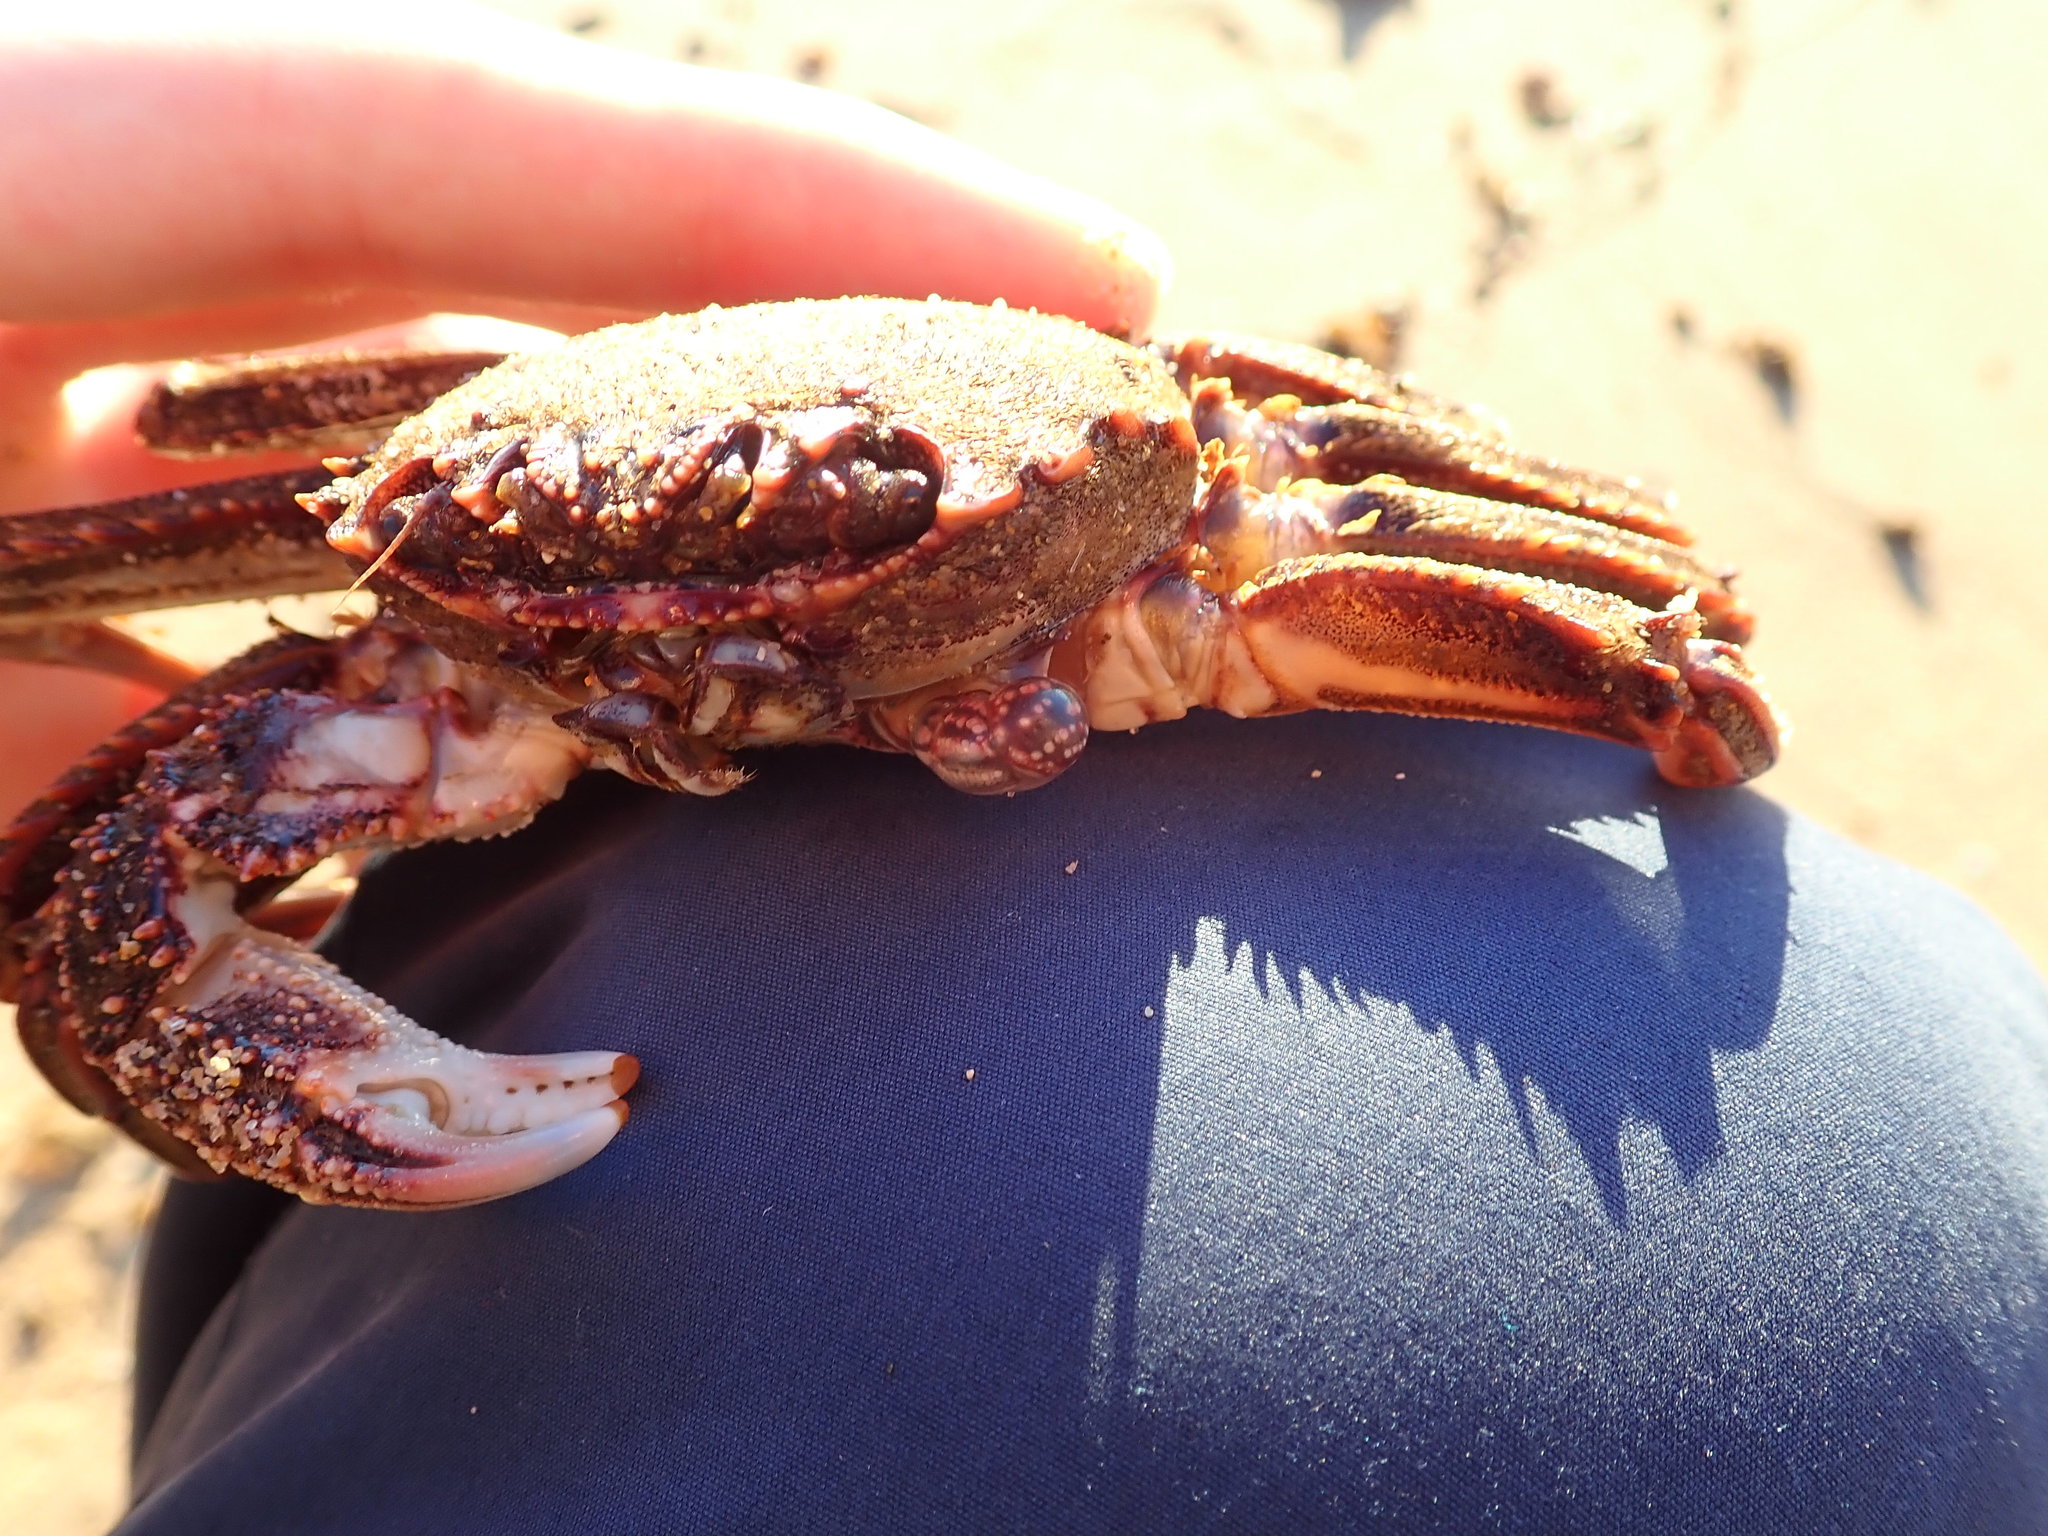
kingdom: Animalia
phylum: Arthropoda
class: Malacostraca
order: Decapoda
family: Plagusiidae
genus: Guinusia
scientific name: Guinusia chabrus
